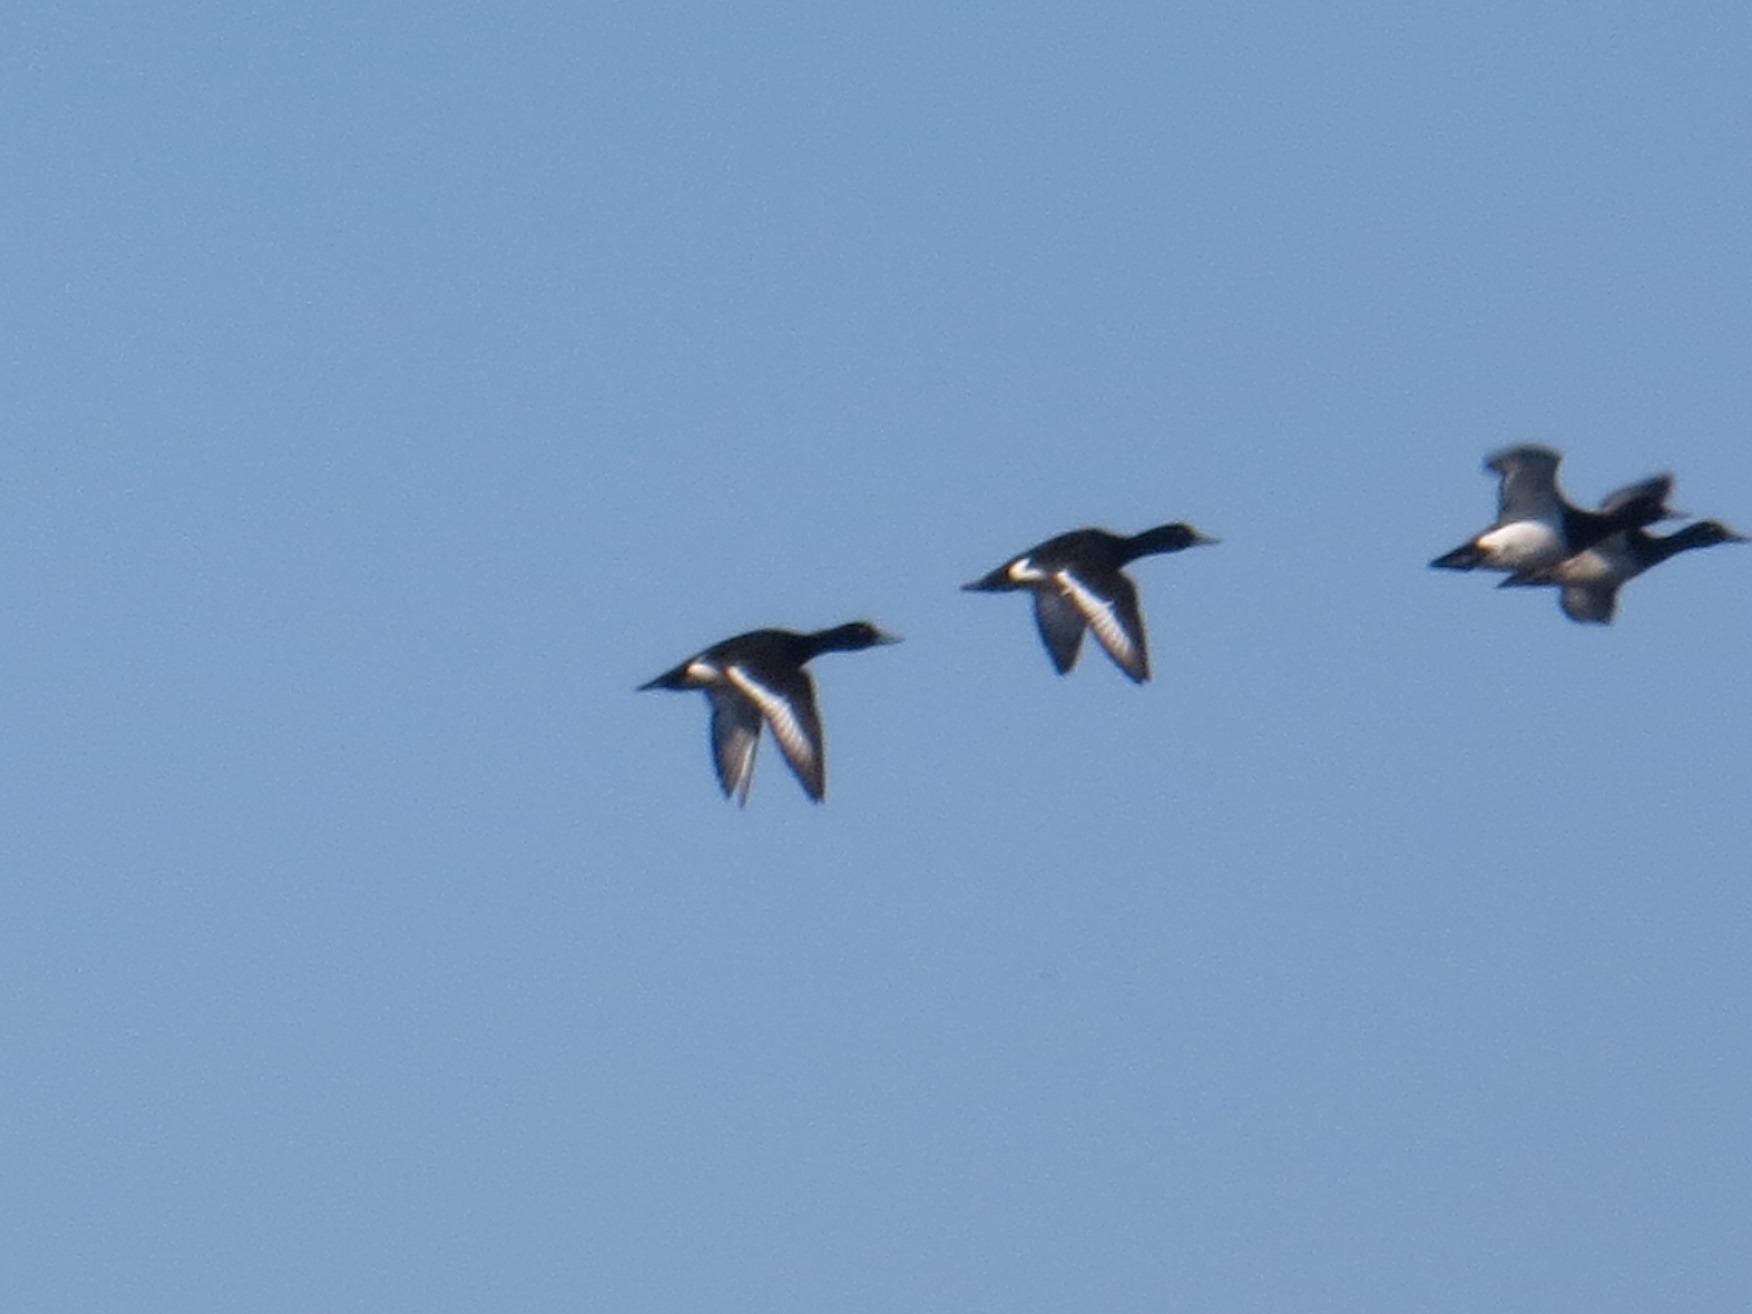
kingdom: Animalia
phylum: Chordata
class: Aves
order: Anseriformes
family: Anatidae
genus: Aythya
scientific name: Aythya fuligula
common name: Tufted duck
